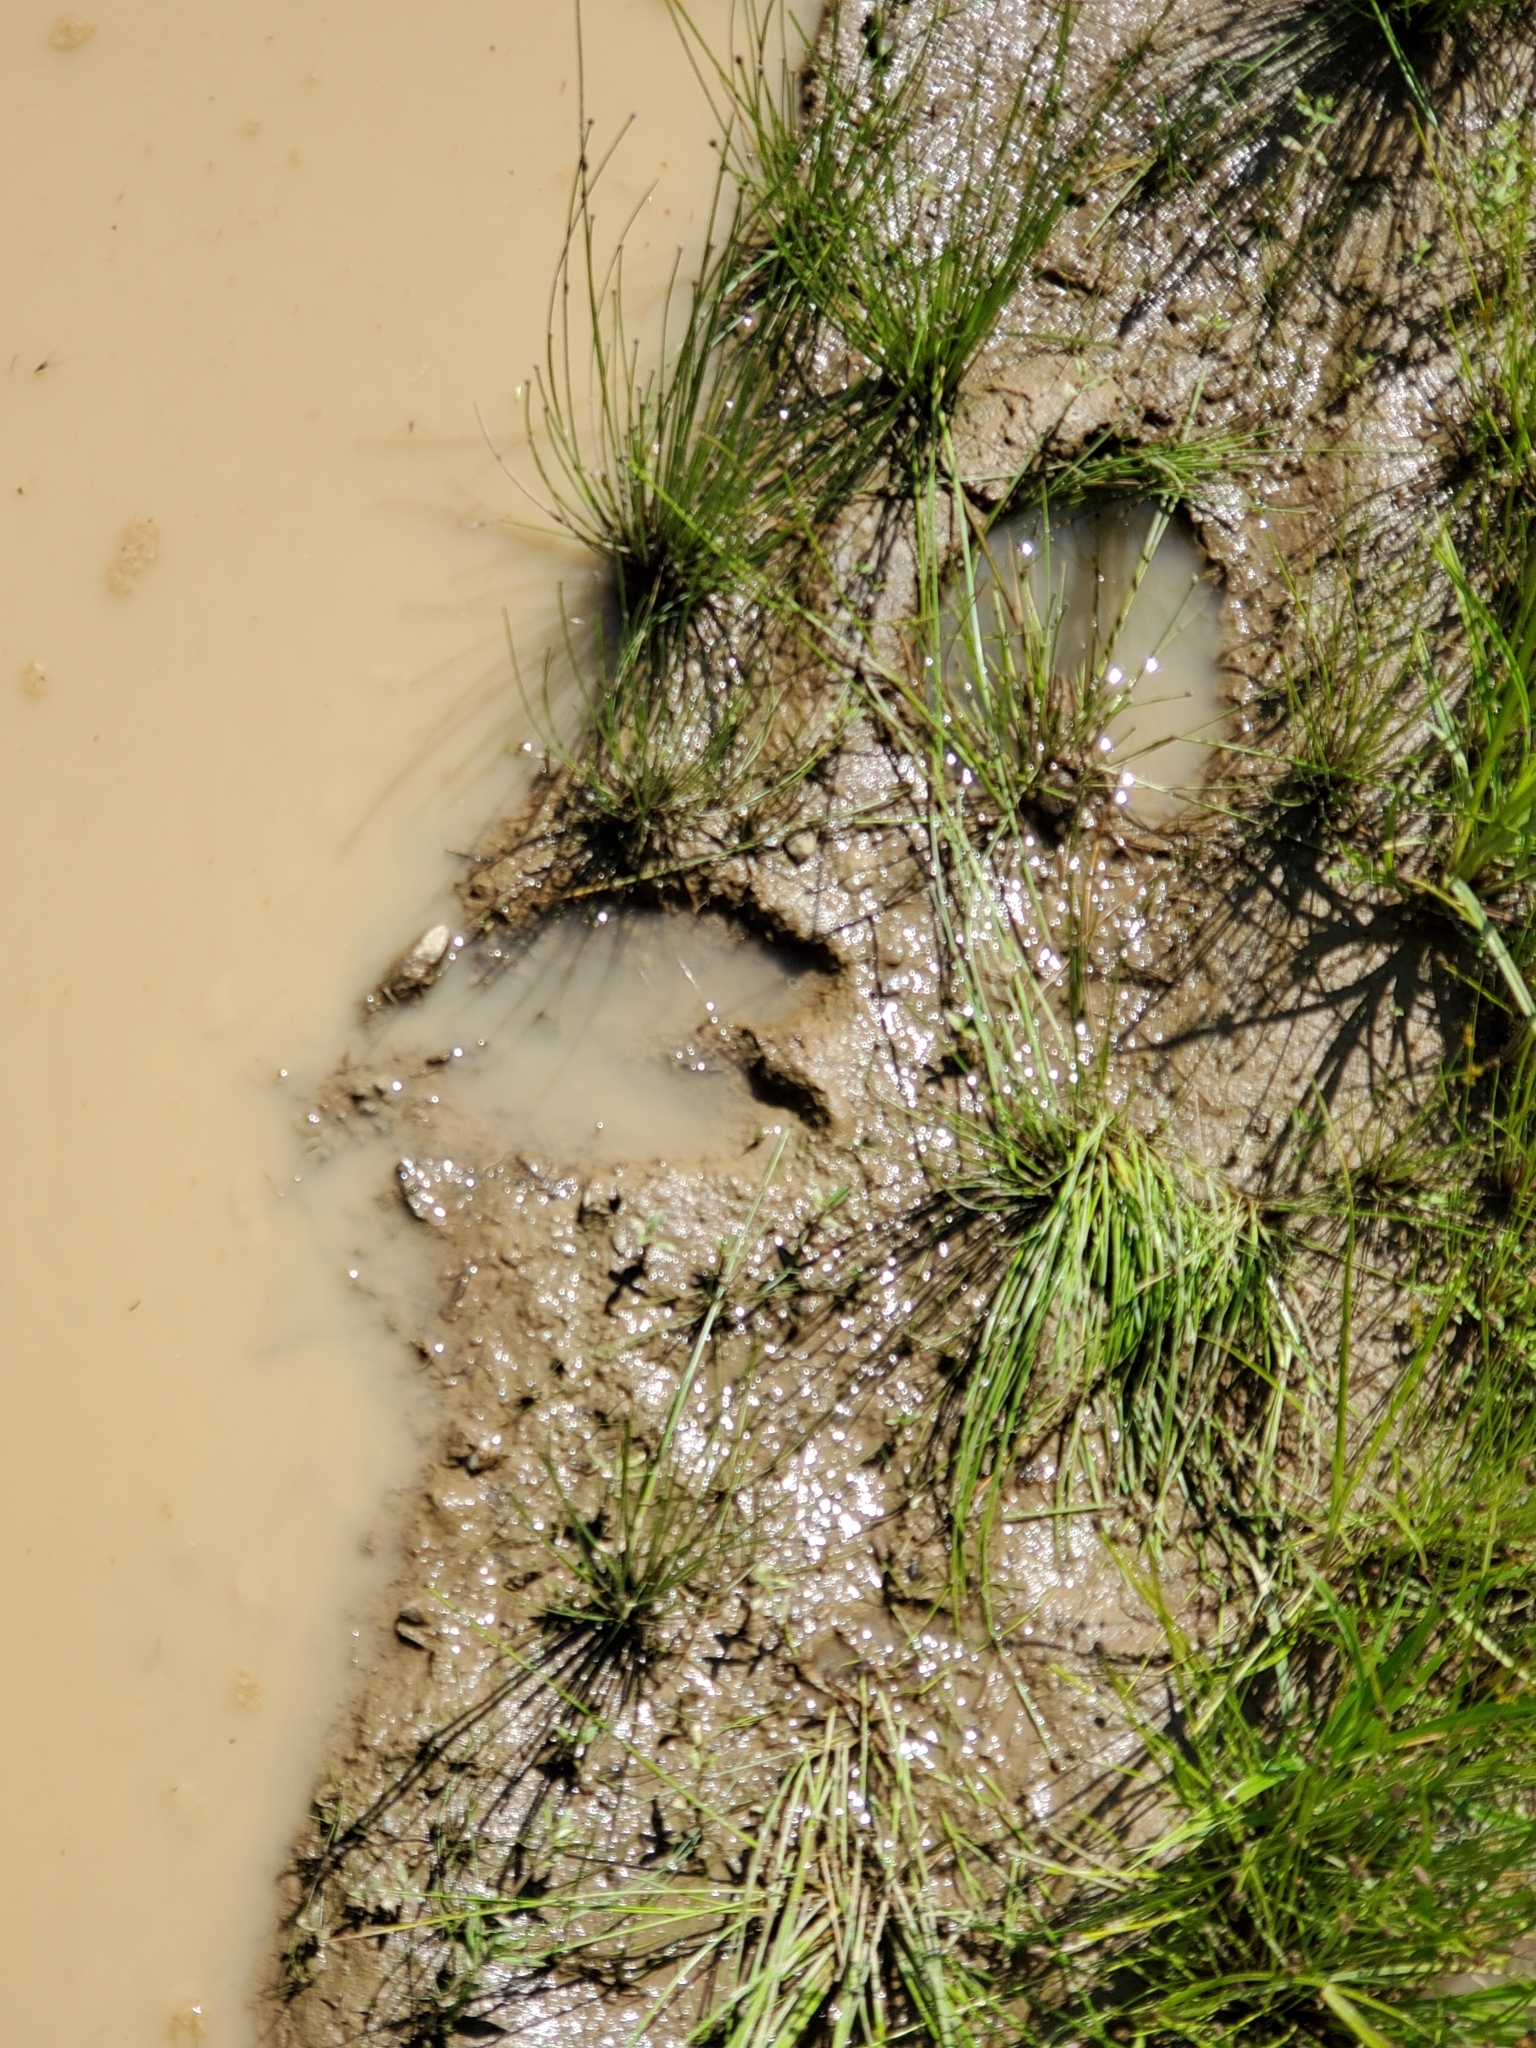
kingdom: Animalia
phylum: Chordata
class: Mammalia
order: Artiodactyla
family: Cervidae
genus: Alces
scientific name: Alces alces
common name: Moose
